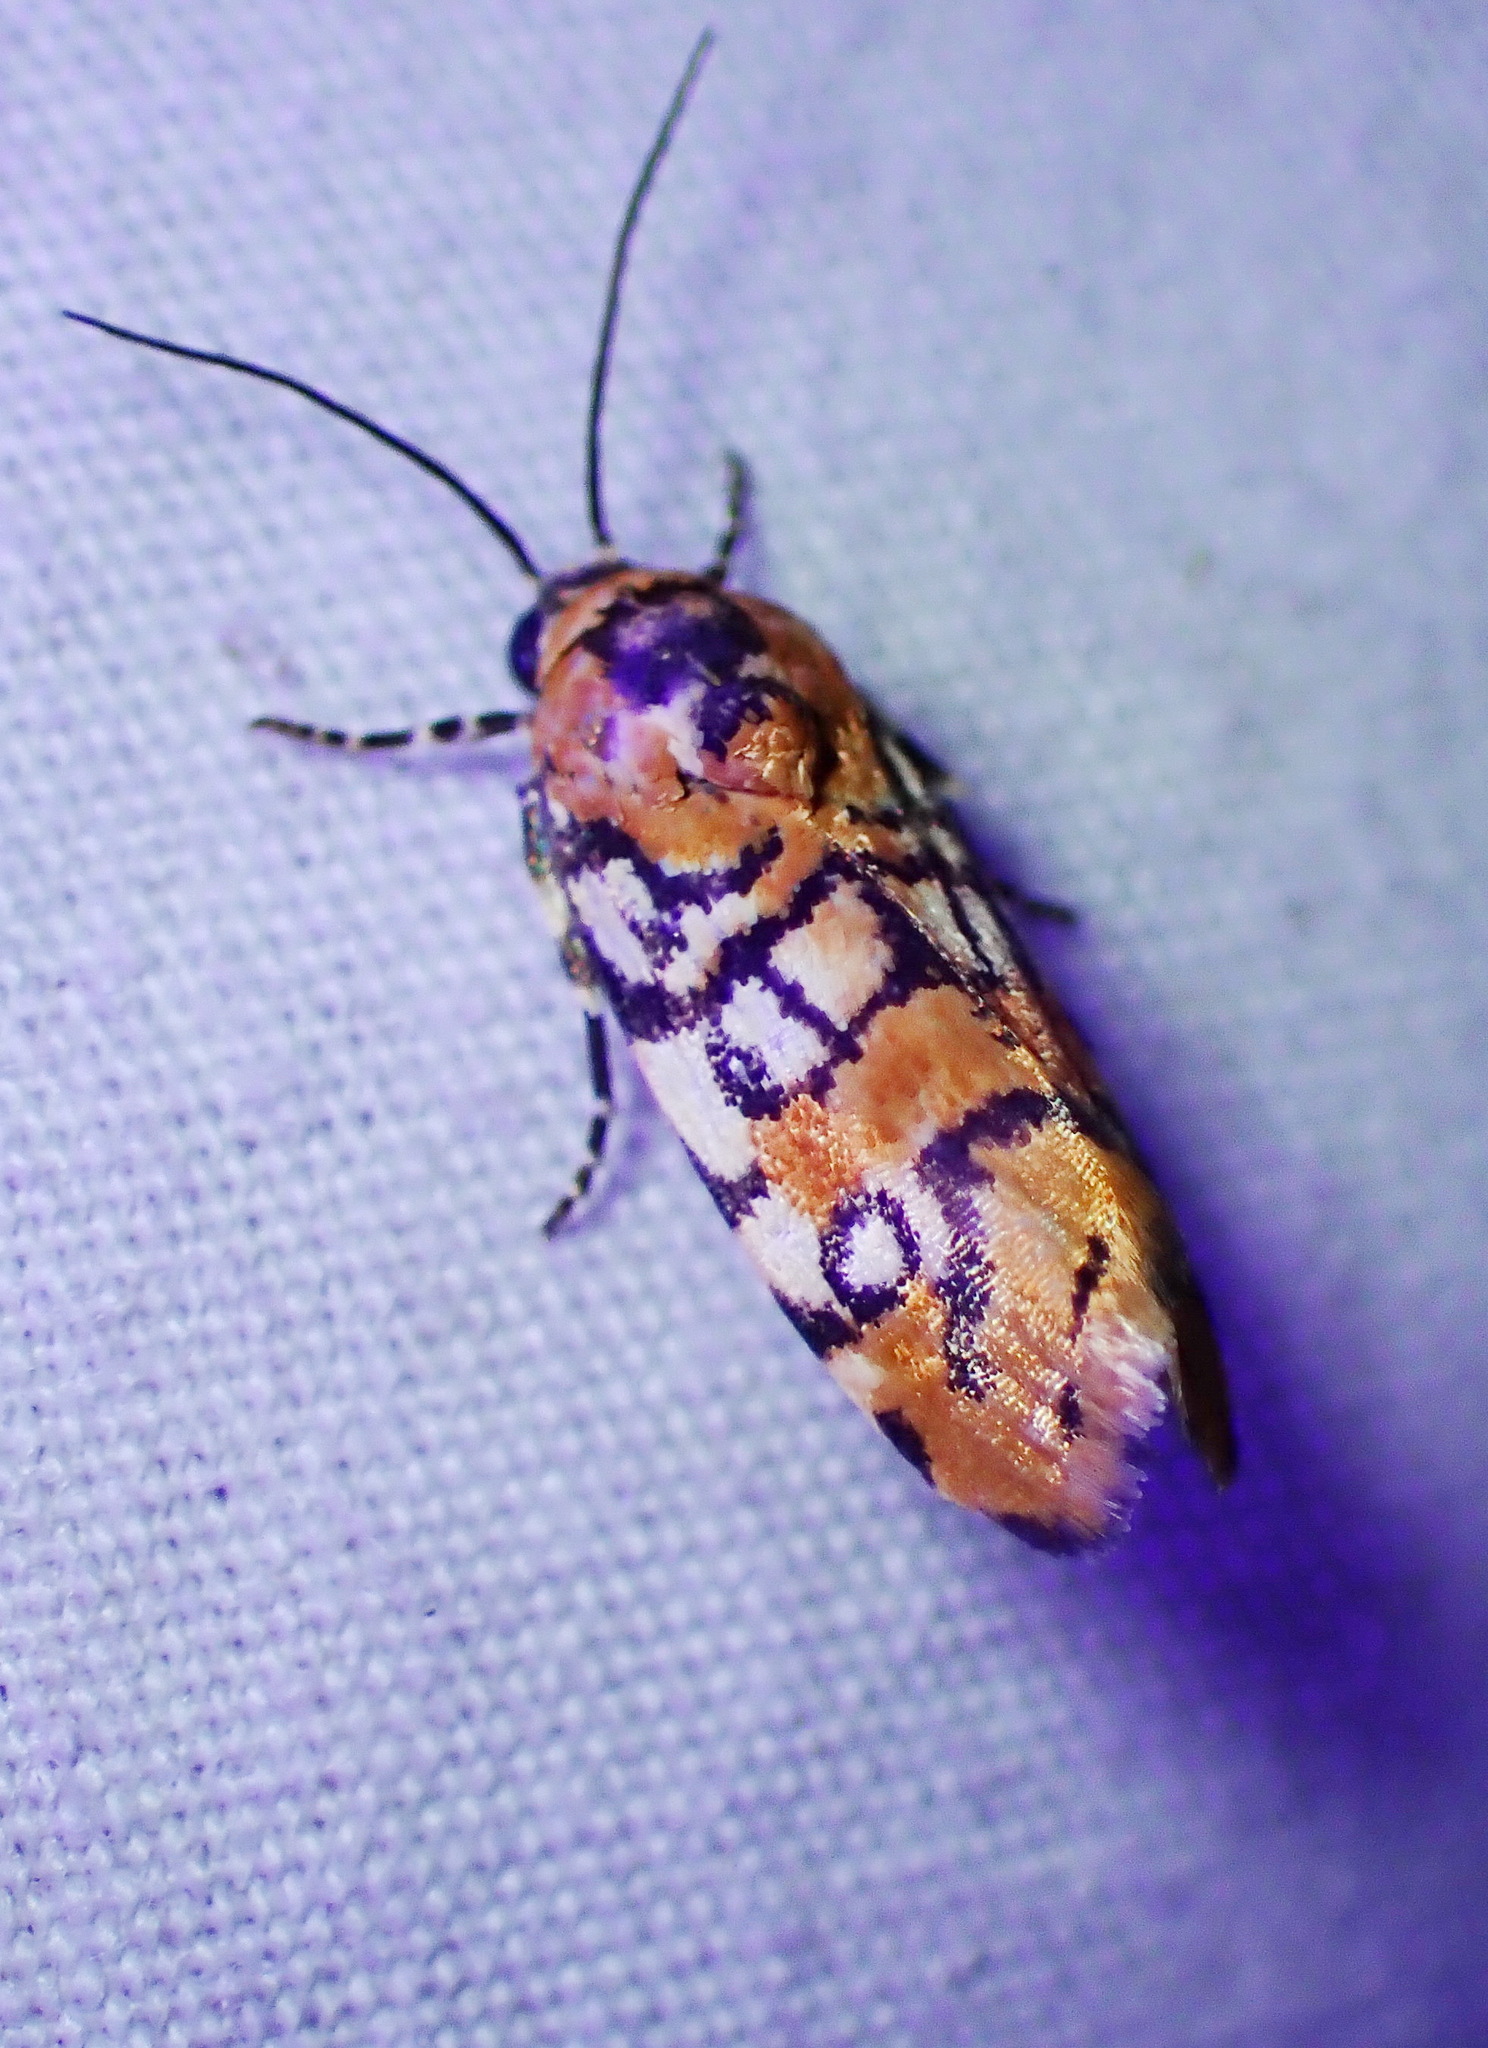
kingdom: Animalia
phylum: Arthropoda
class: Insecta
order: Lepidoptera
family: Noctuidae
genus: Spragueia
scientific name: Spragueia guttata
